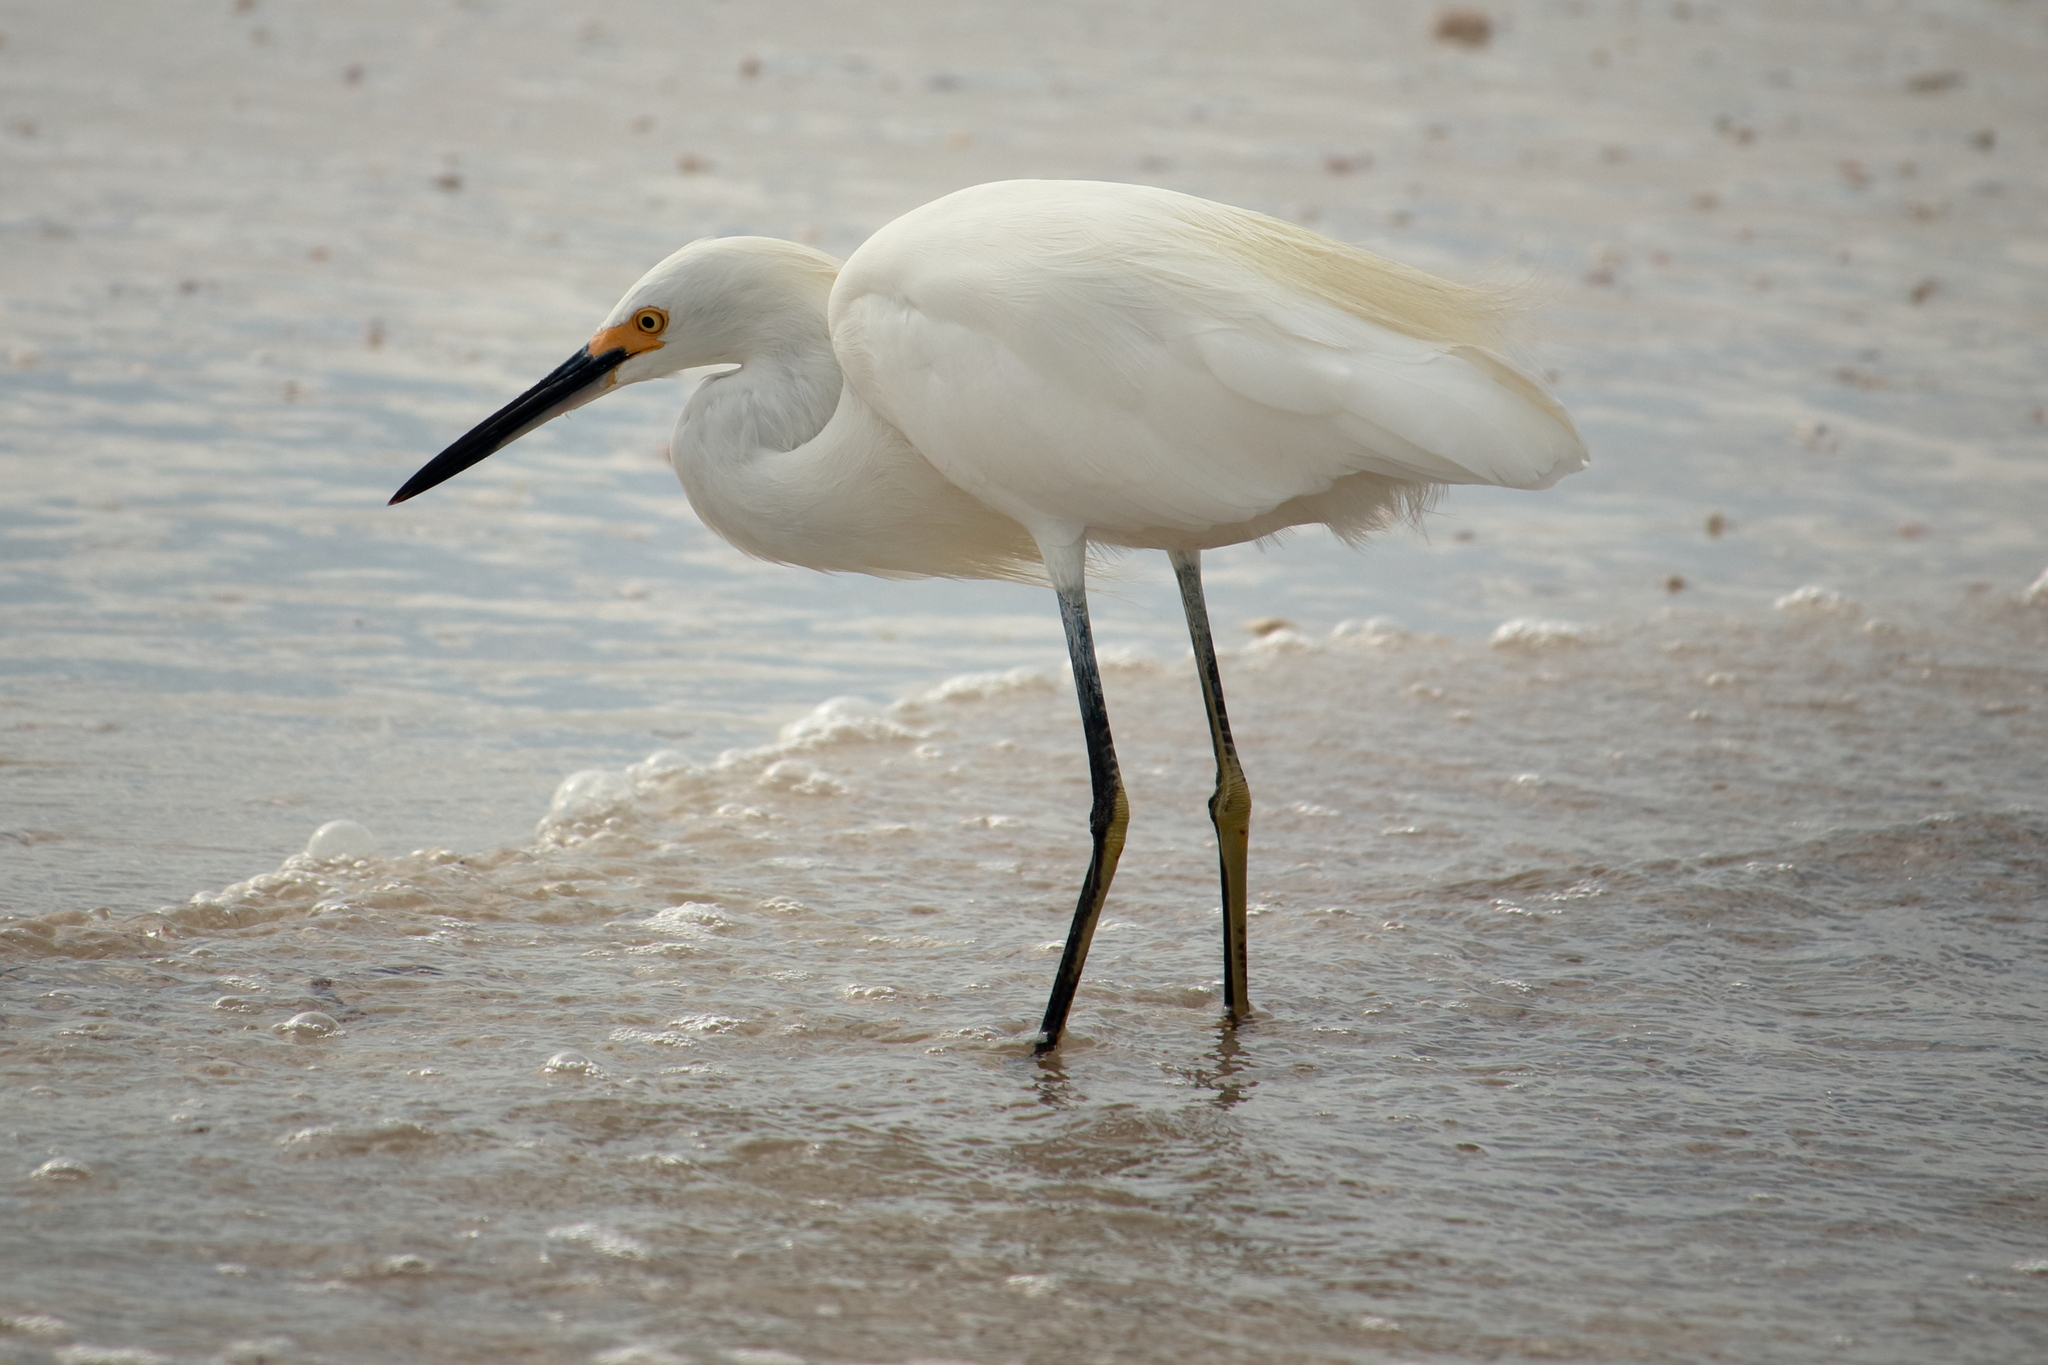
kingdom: Animalia
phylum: Chordata
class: Aves
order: Pelecaniformes
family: Ardeidae
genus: Egretta
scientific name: Egretta thula
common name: Snowy egret
